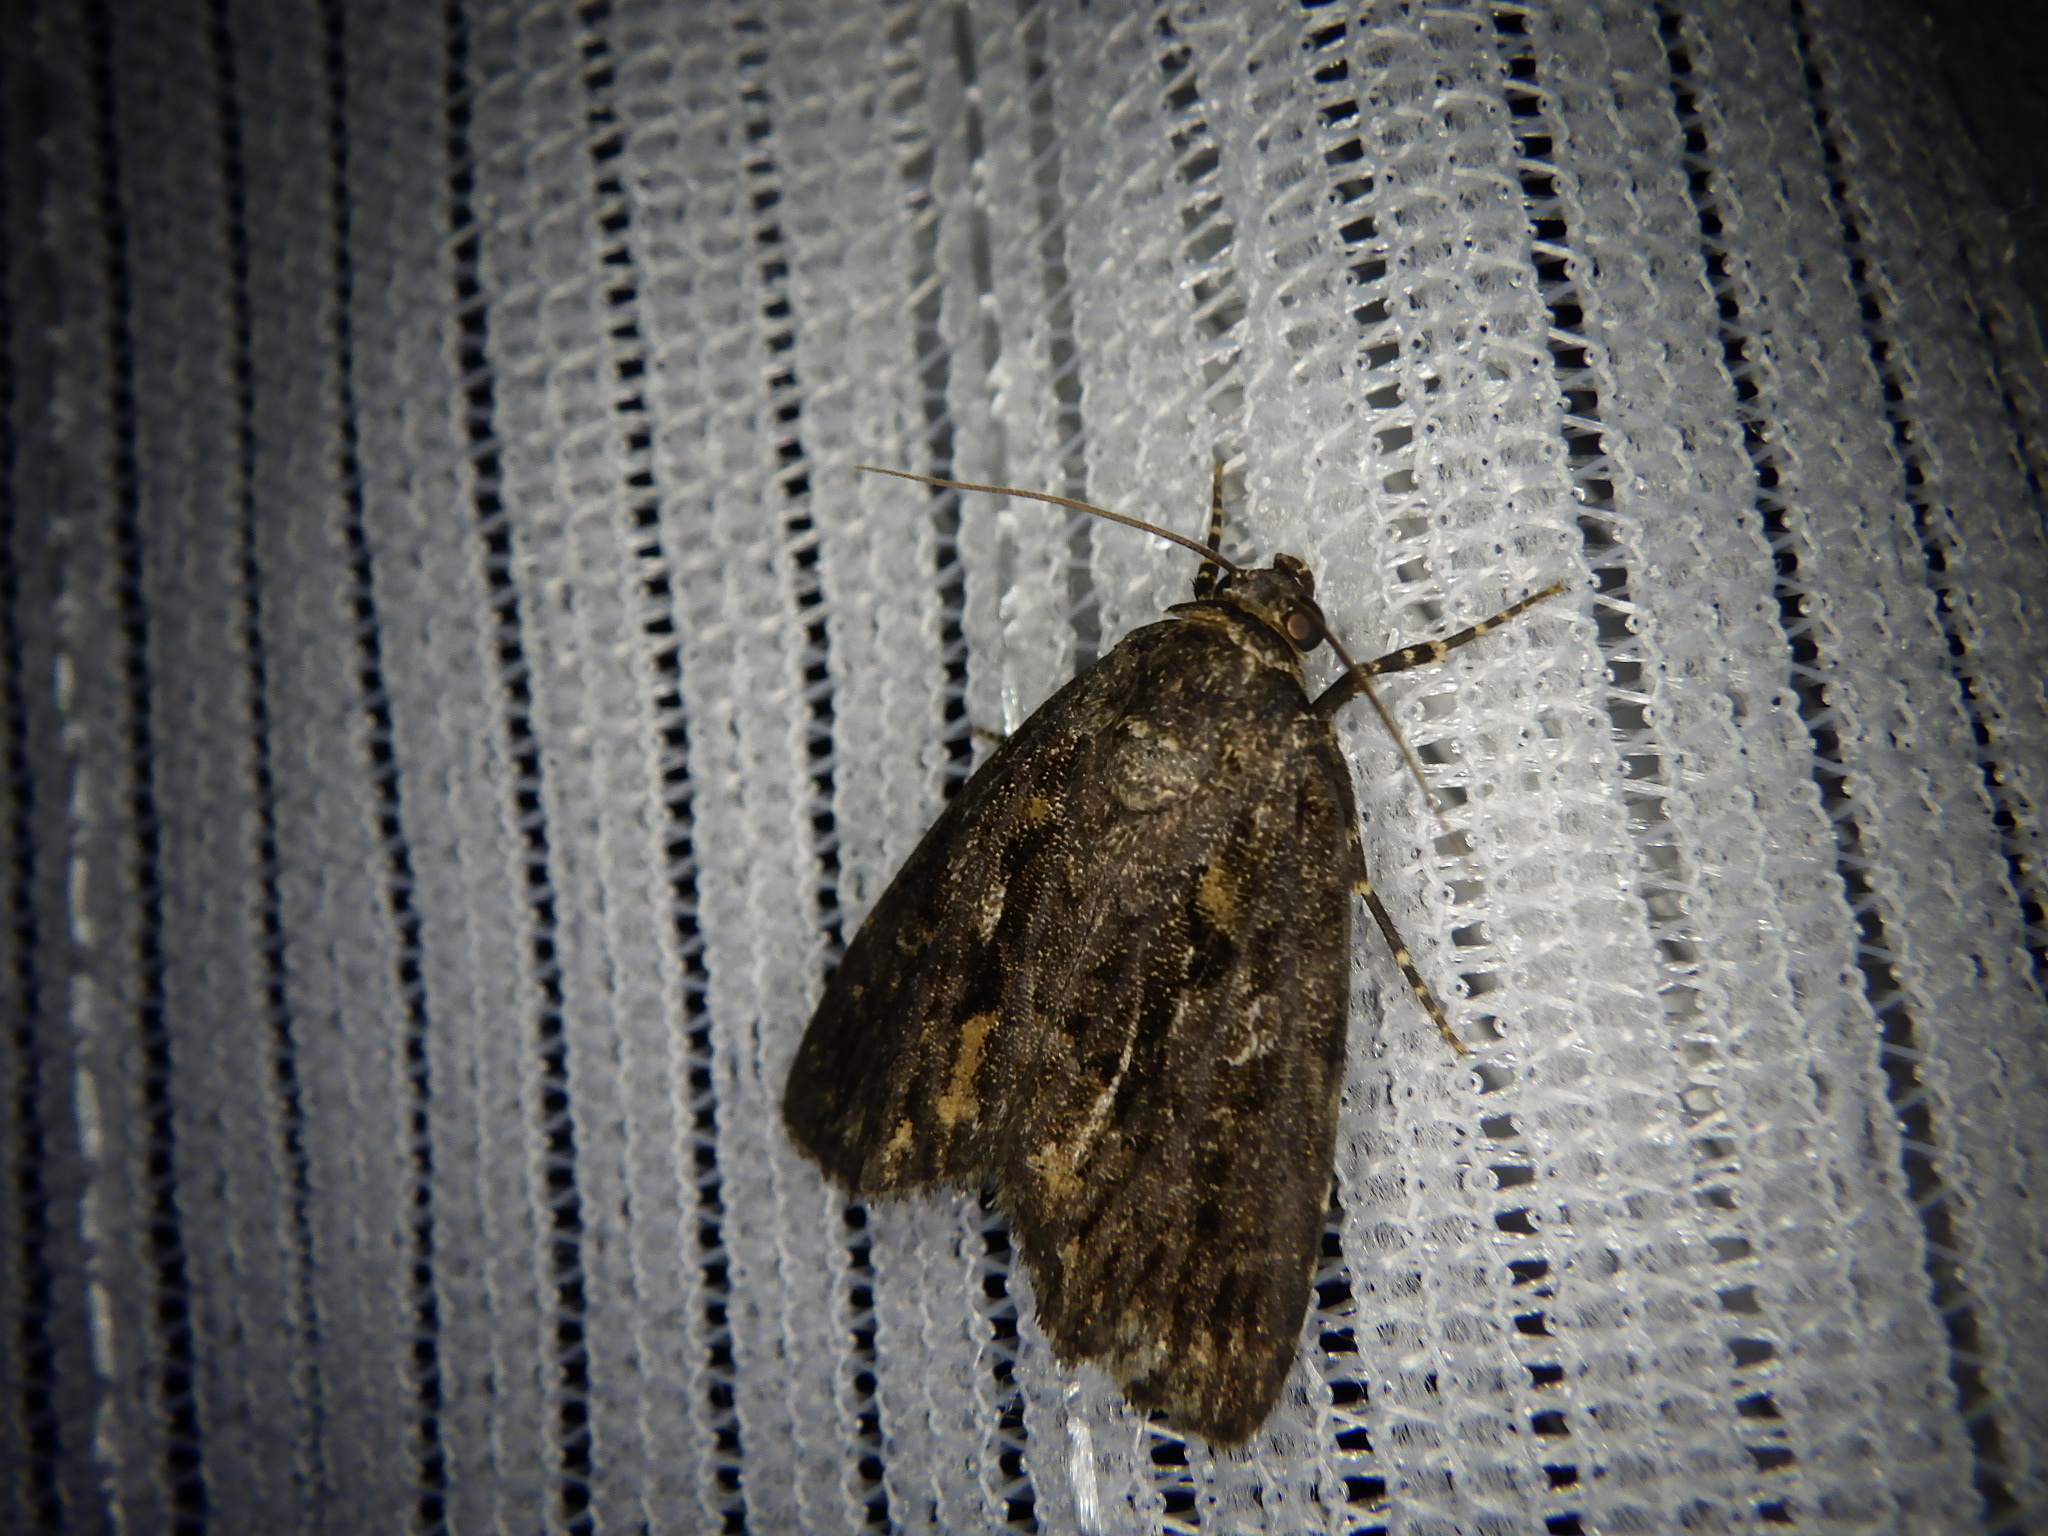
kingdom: Animalia
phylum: Arthropoda
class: Insecta
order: Lepidoptera
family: Noctuidae
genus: Gerbathodes
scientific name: Gerbathodes lichenodes
